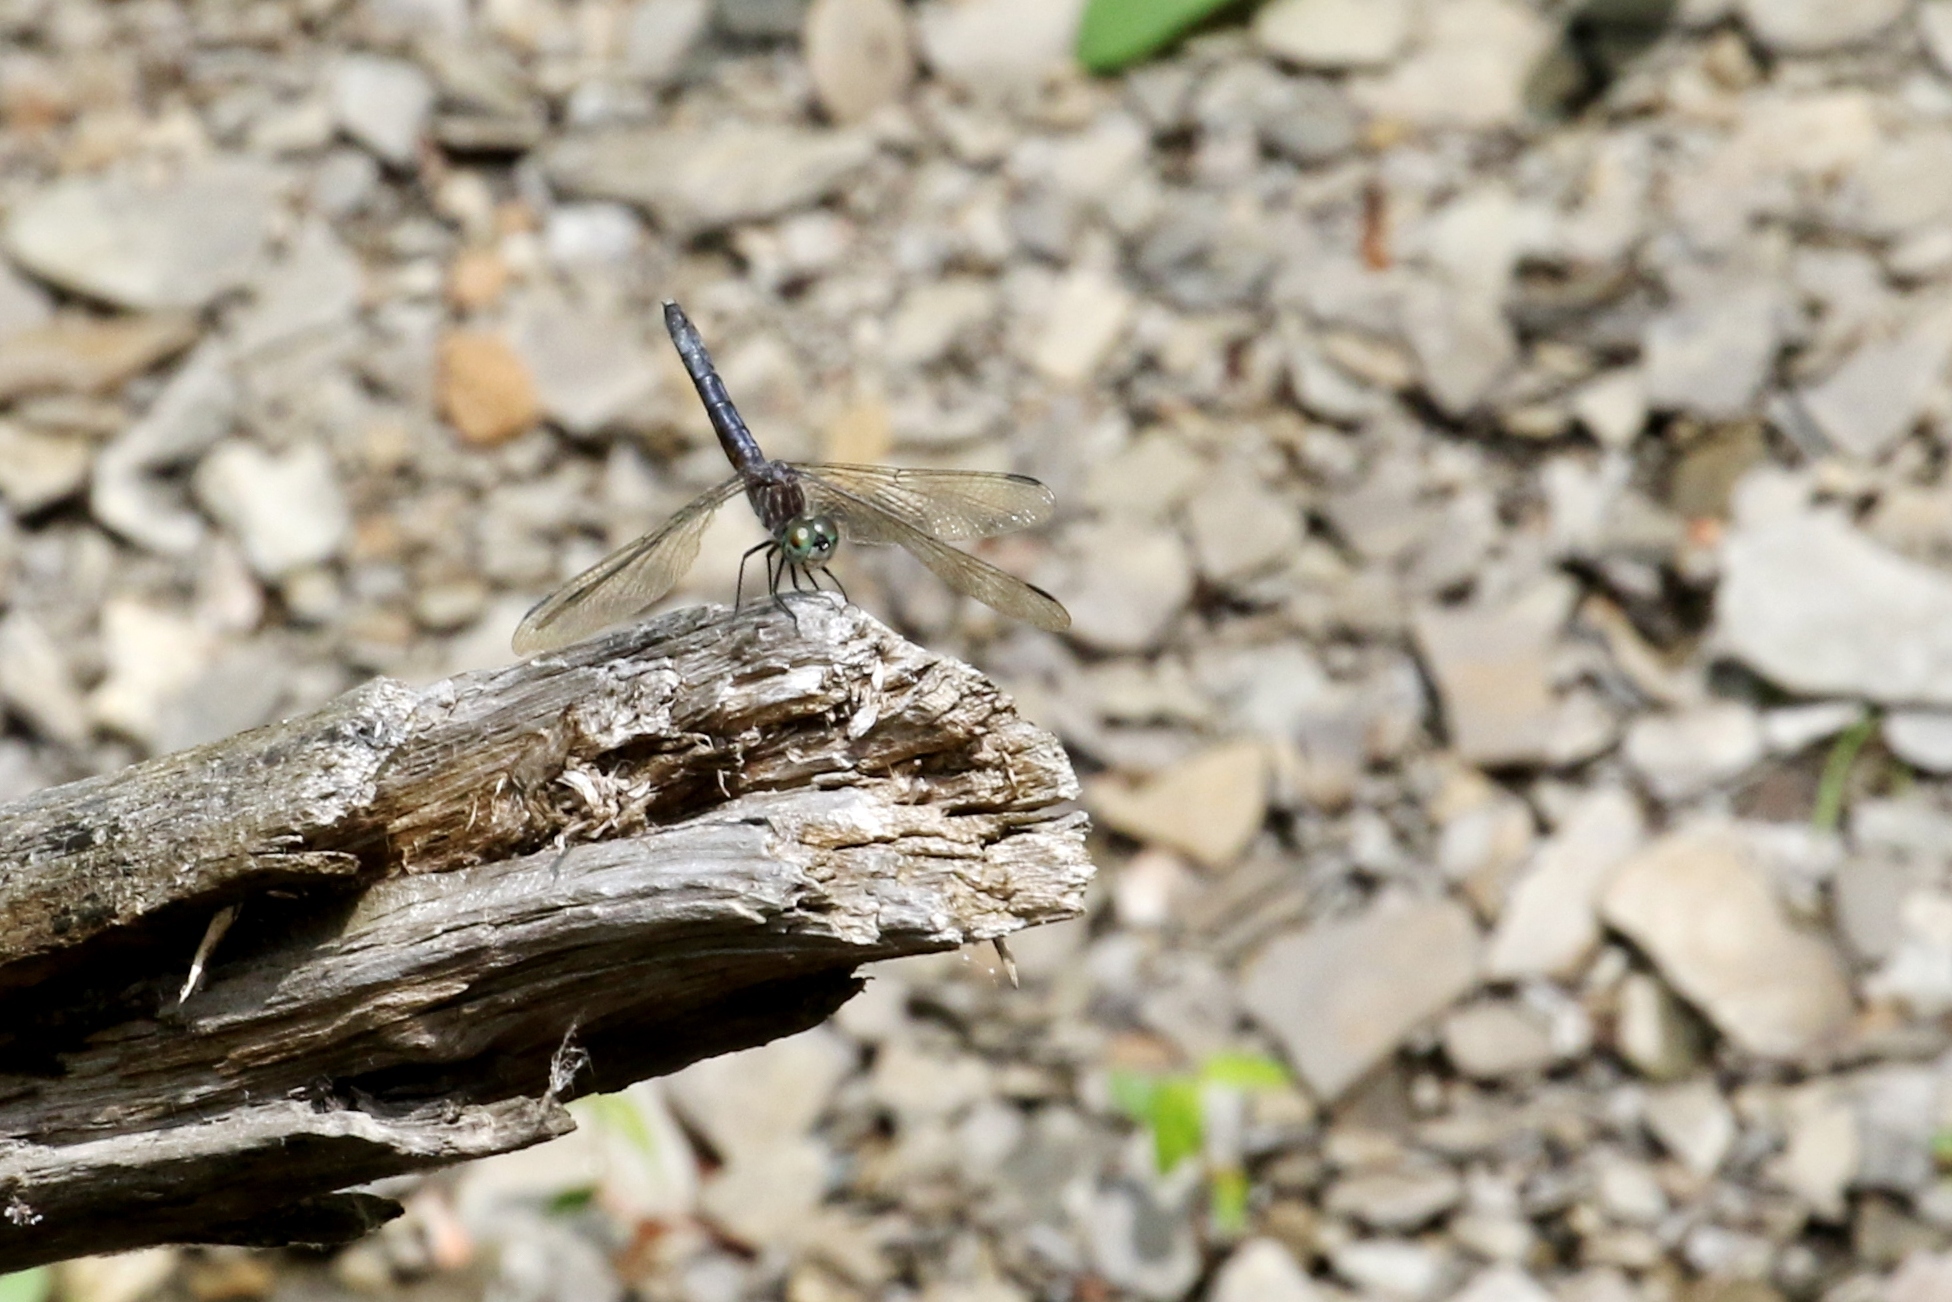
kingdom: Animalia
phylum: Arthropoda
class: Insecta
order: Odonata
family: Libellulidae
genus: Pachydiplax
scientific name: Pachydiplax longipennis
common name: Blue dasher
